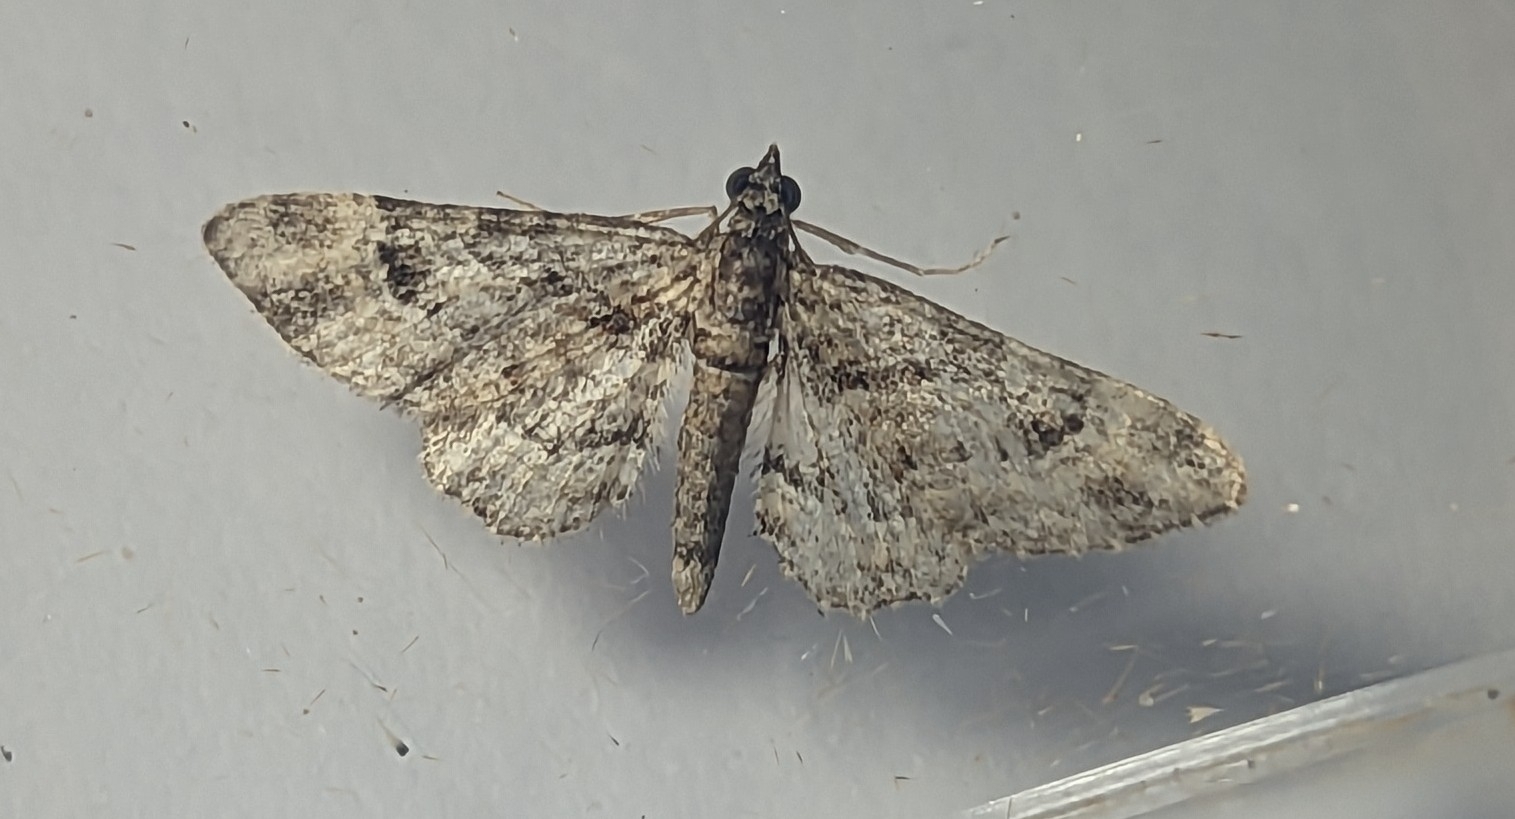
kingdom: Animalia
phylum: Arthropoda
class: Insecta
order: Lepidoptera
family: Geometridae
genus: Gymnoscelis
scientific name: Gymnoscelis rufifasciata
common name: Double-striped pug
